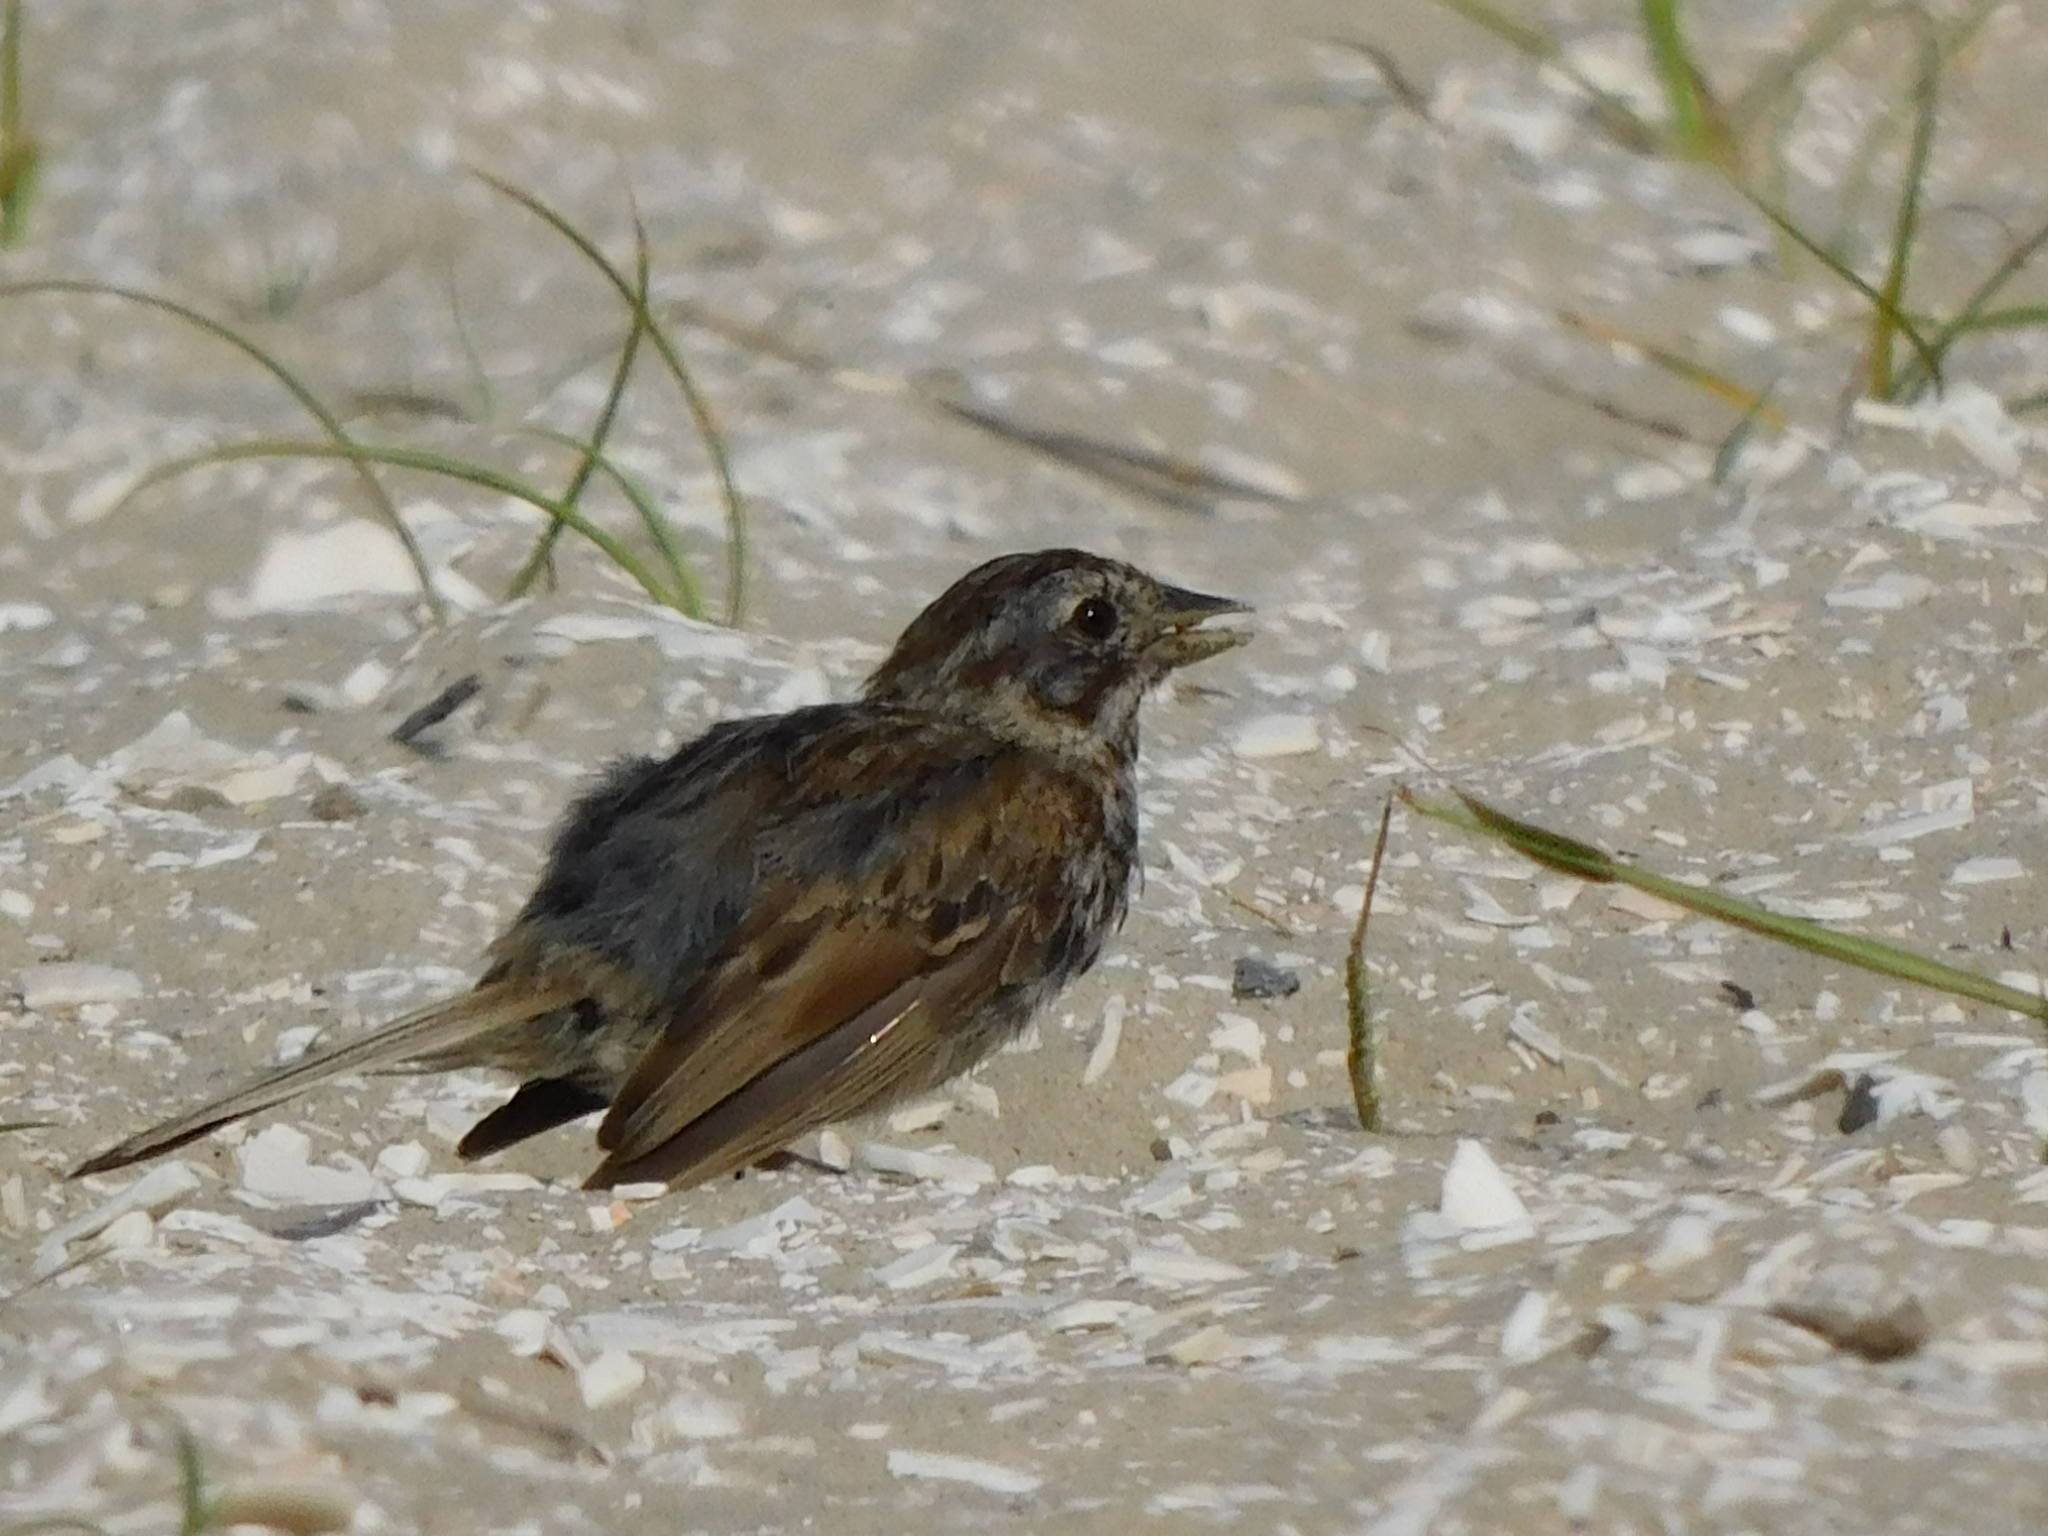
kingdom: Animalia
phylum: Chordata
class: Aves
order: Passeriformes
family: Passerellidae
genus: Melospiza
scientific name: Melospiza melodia
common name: Song sparrow
